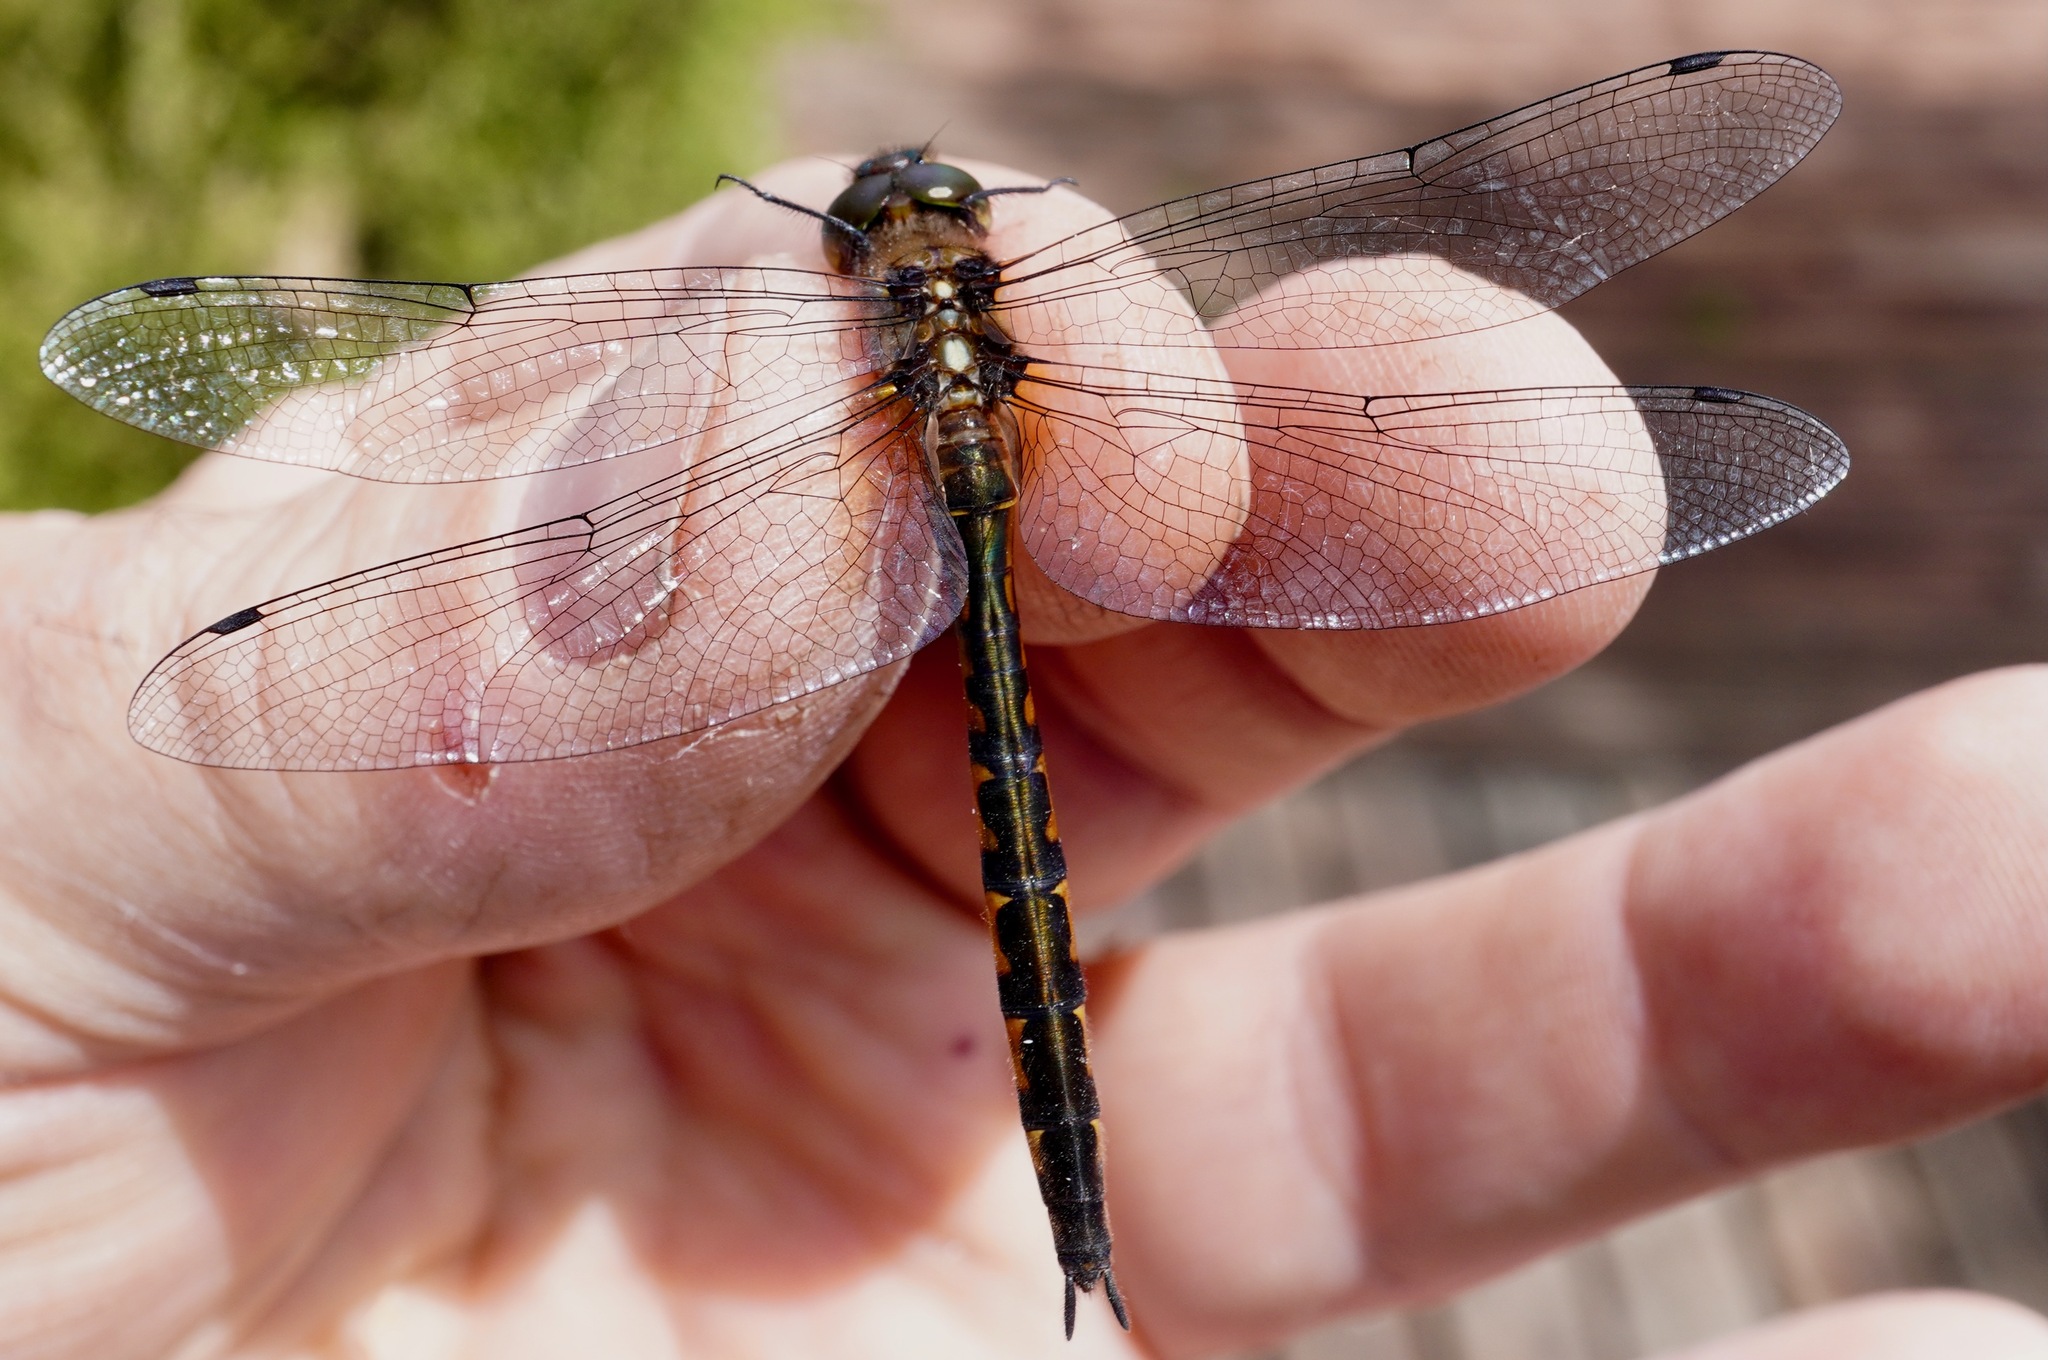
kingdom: Animalia
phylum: Arthropoda
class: Insecta
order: Odonata
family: Corduliidae
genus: Hemicordulia
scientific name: Hemicordulia armstrongi
